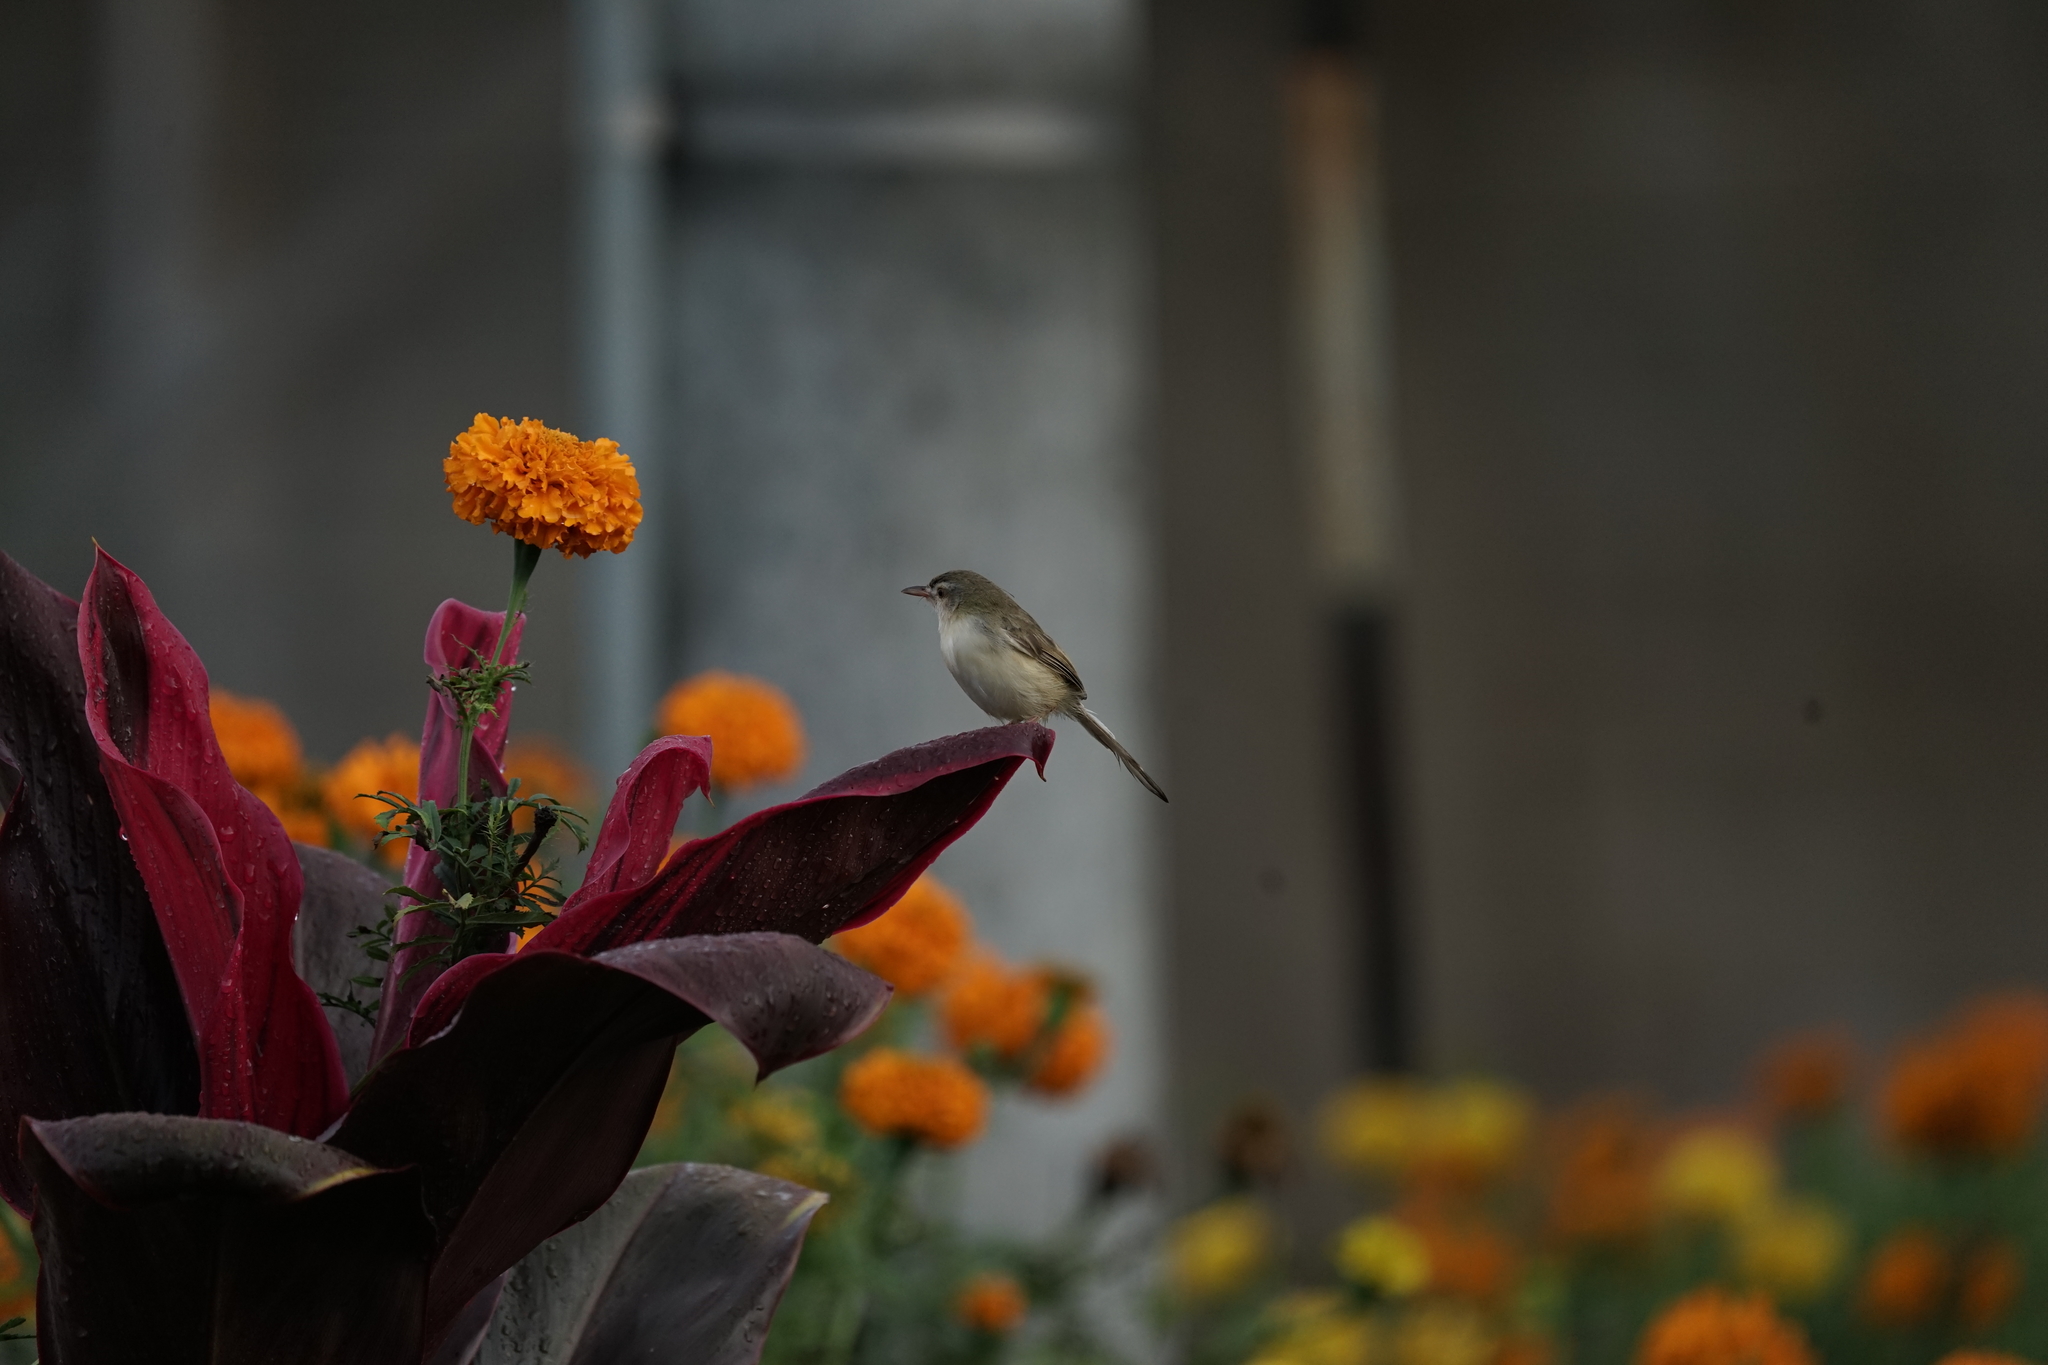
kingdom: Animalia
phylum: Chordata
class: Aves
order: Passeriformes
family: Cisticolidae
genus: Prinia
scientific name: Prinia inornata
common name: Plain prinia
